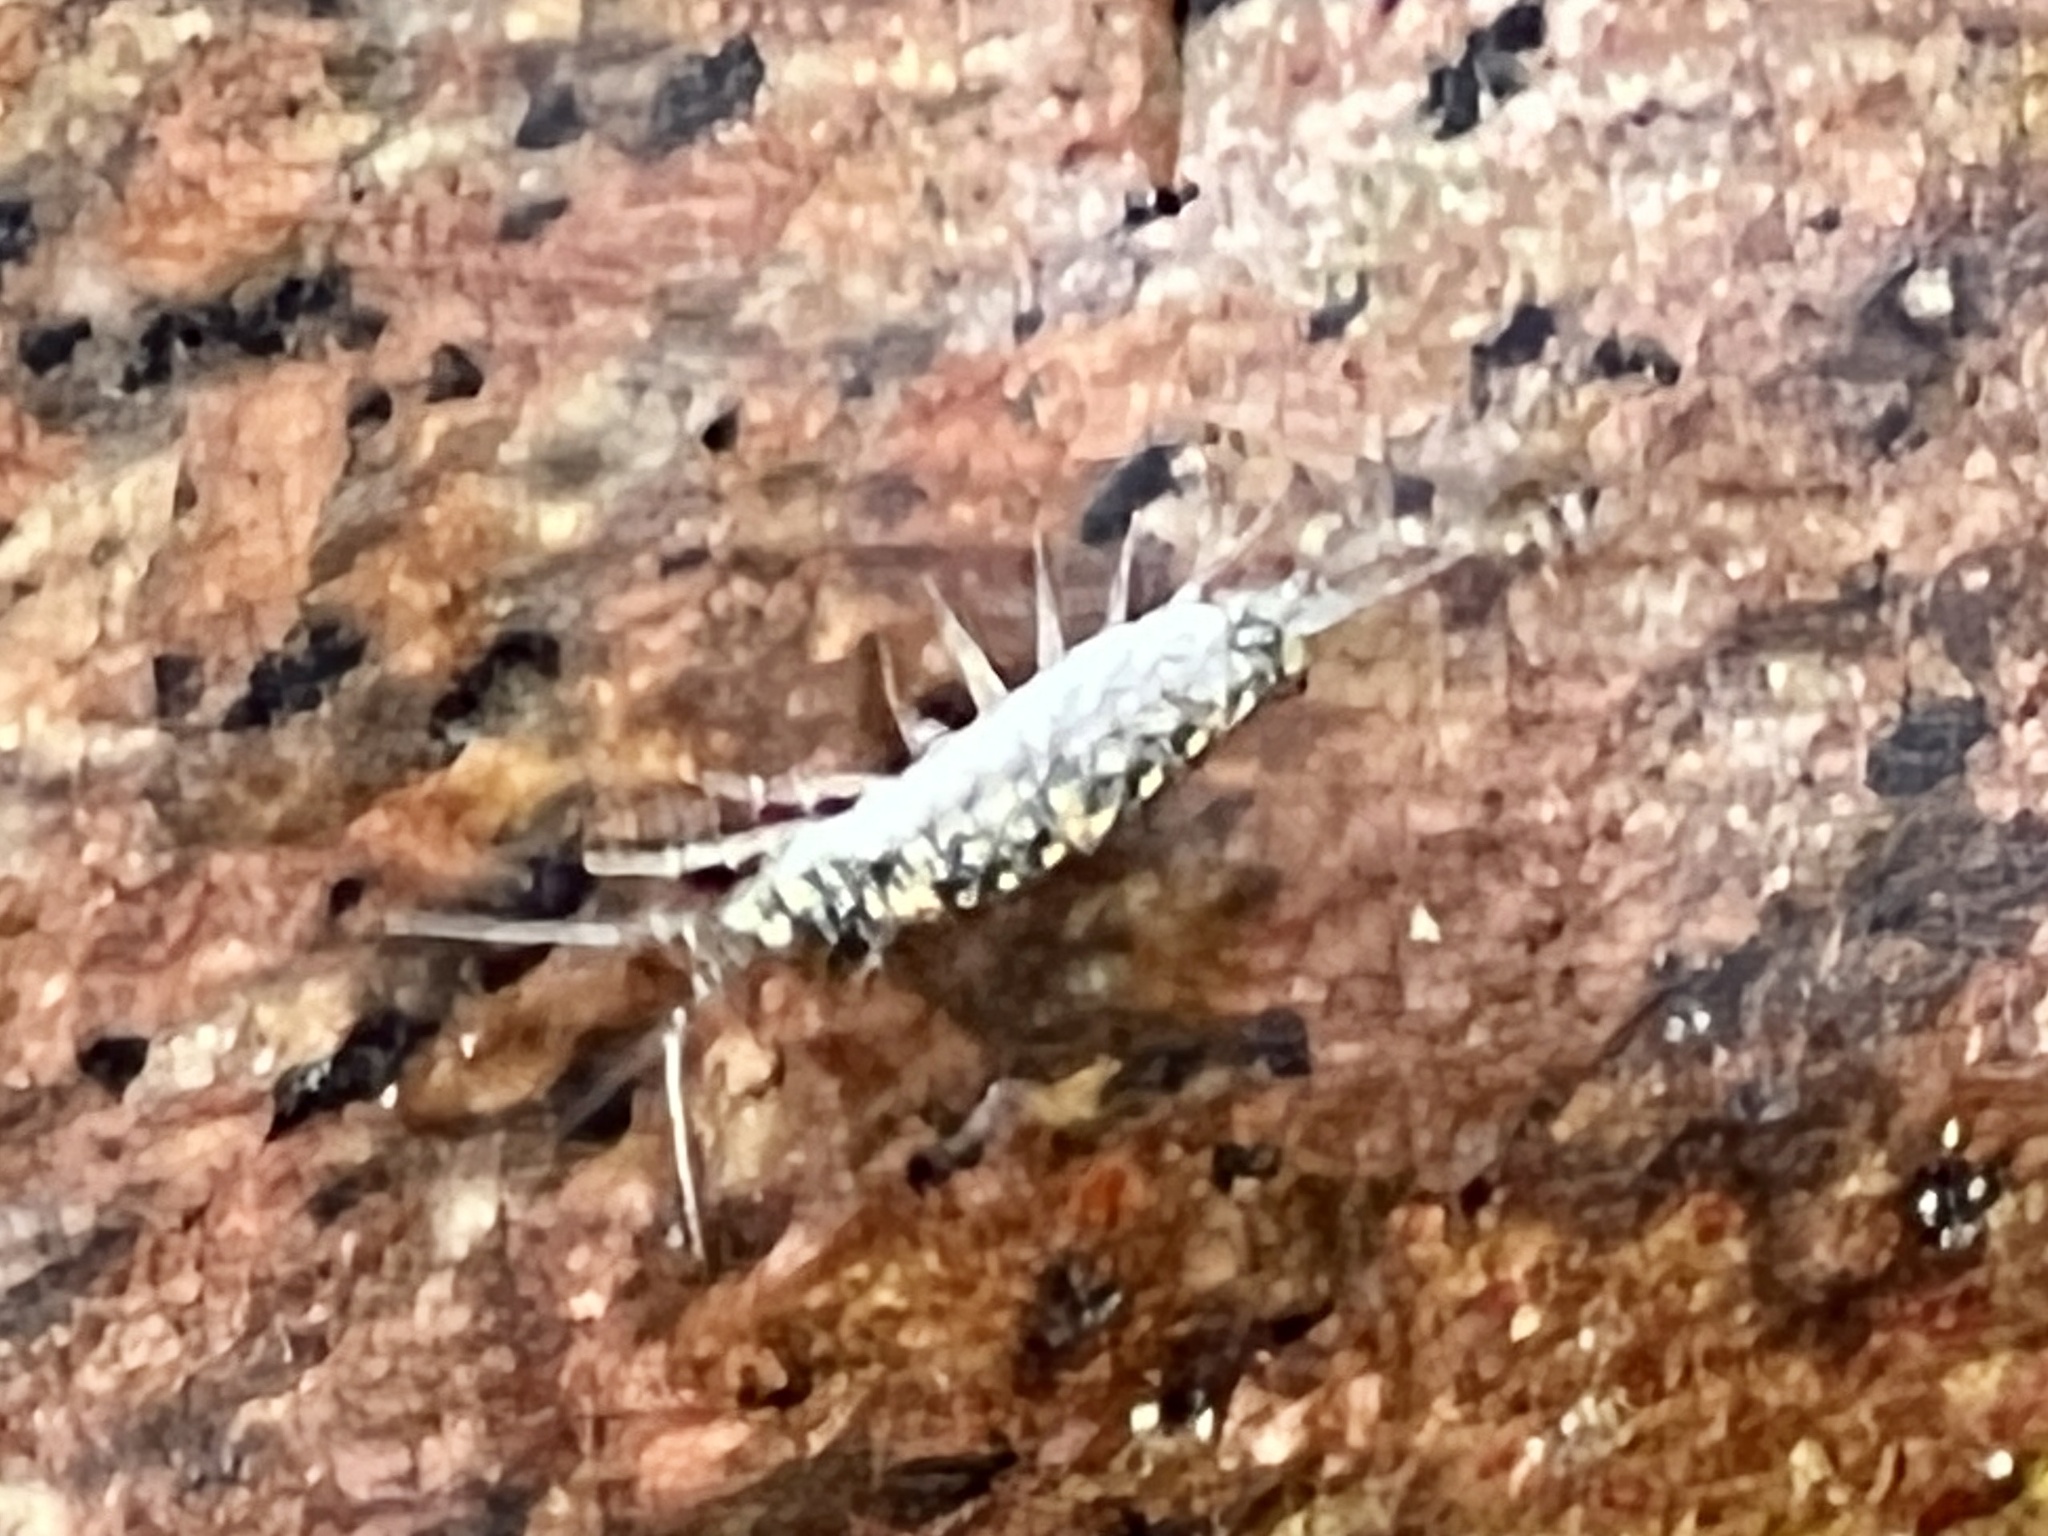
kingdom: Animalia
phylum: Arthropoda
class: Malacostraca
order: Isopoda
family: Ligiidae
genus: Ligia
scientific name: Ligia exotica
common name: Wharf roach
